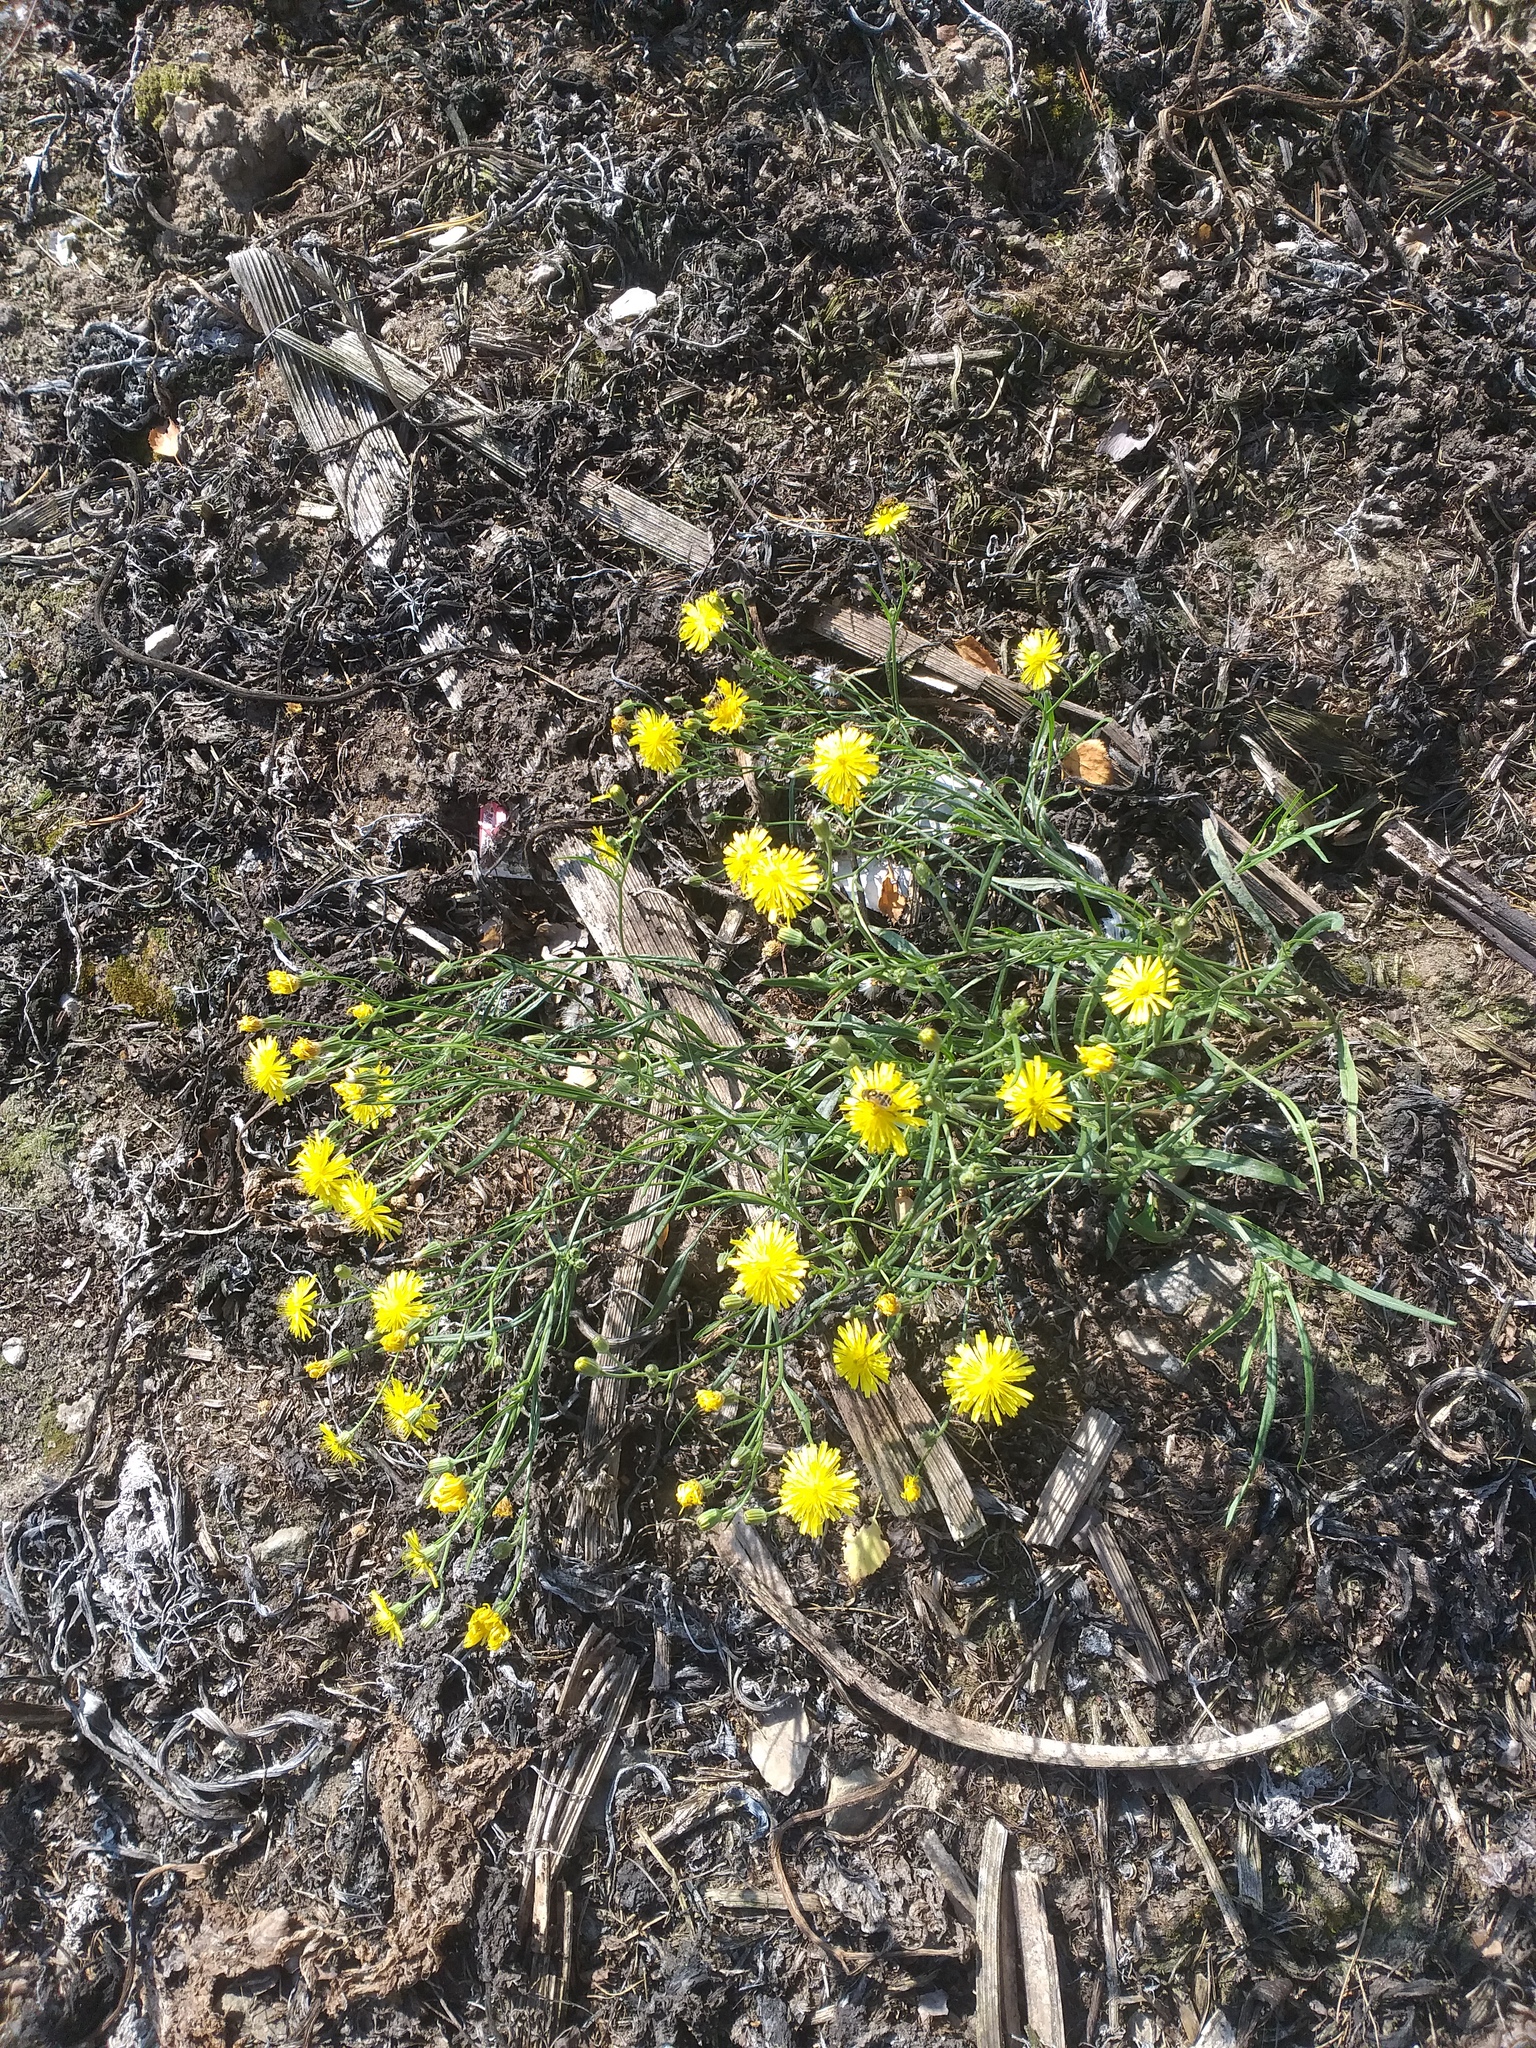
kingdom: Plantae
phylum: Tracheophyta
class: Magnoliopsida
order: Asterales
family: Asteraceae
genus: Crepis
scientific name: Crepis tectorum
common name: Narrow-leaved hawk's-beard
